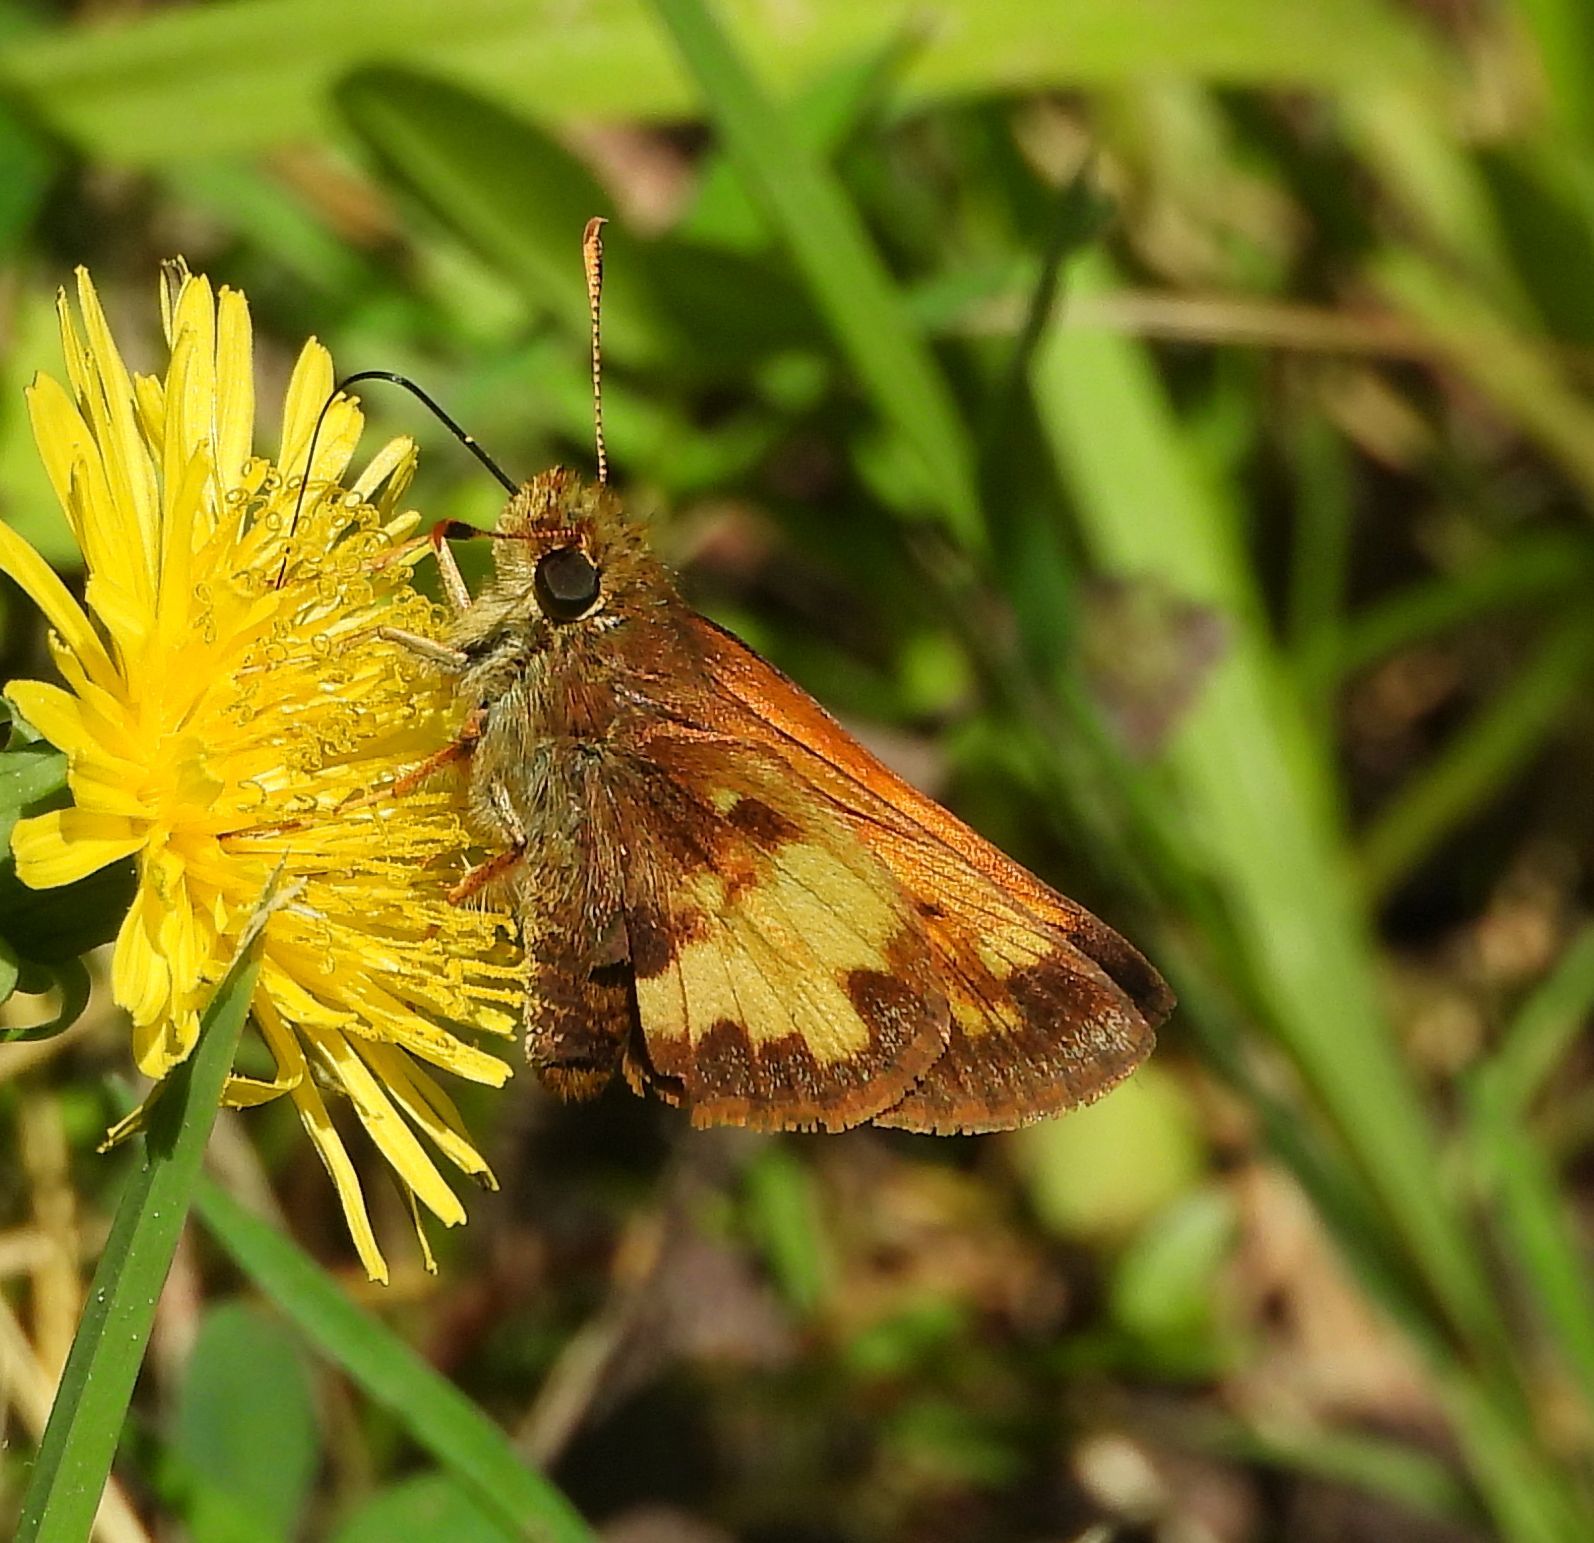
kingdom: Animalia
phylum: Arthropoda
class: Insecta
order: Lepidoptera
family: Hesperiidae
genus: Lon
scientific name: Lon hobomok
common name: Hobomok skipper
